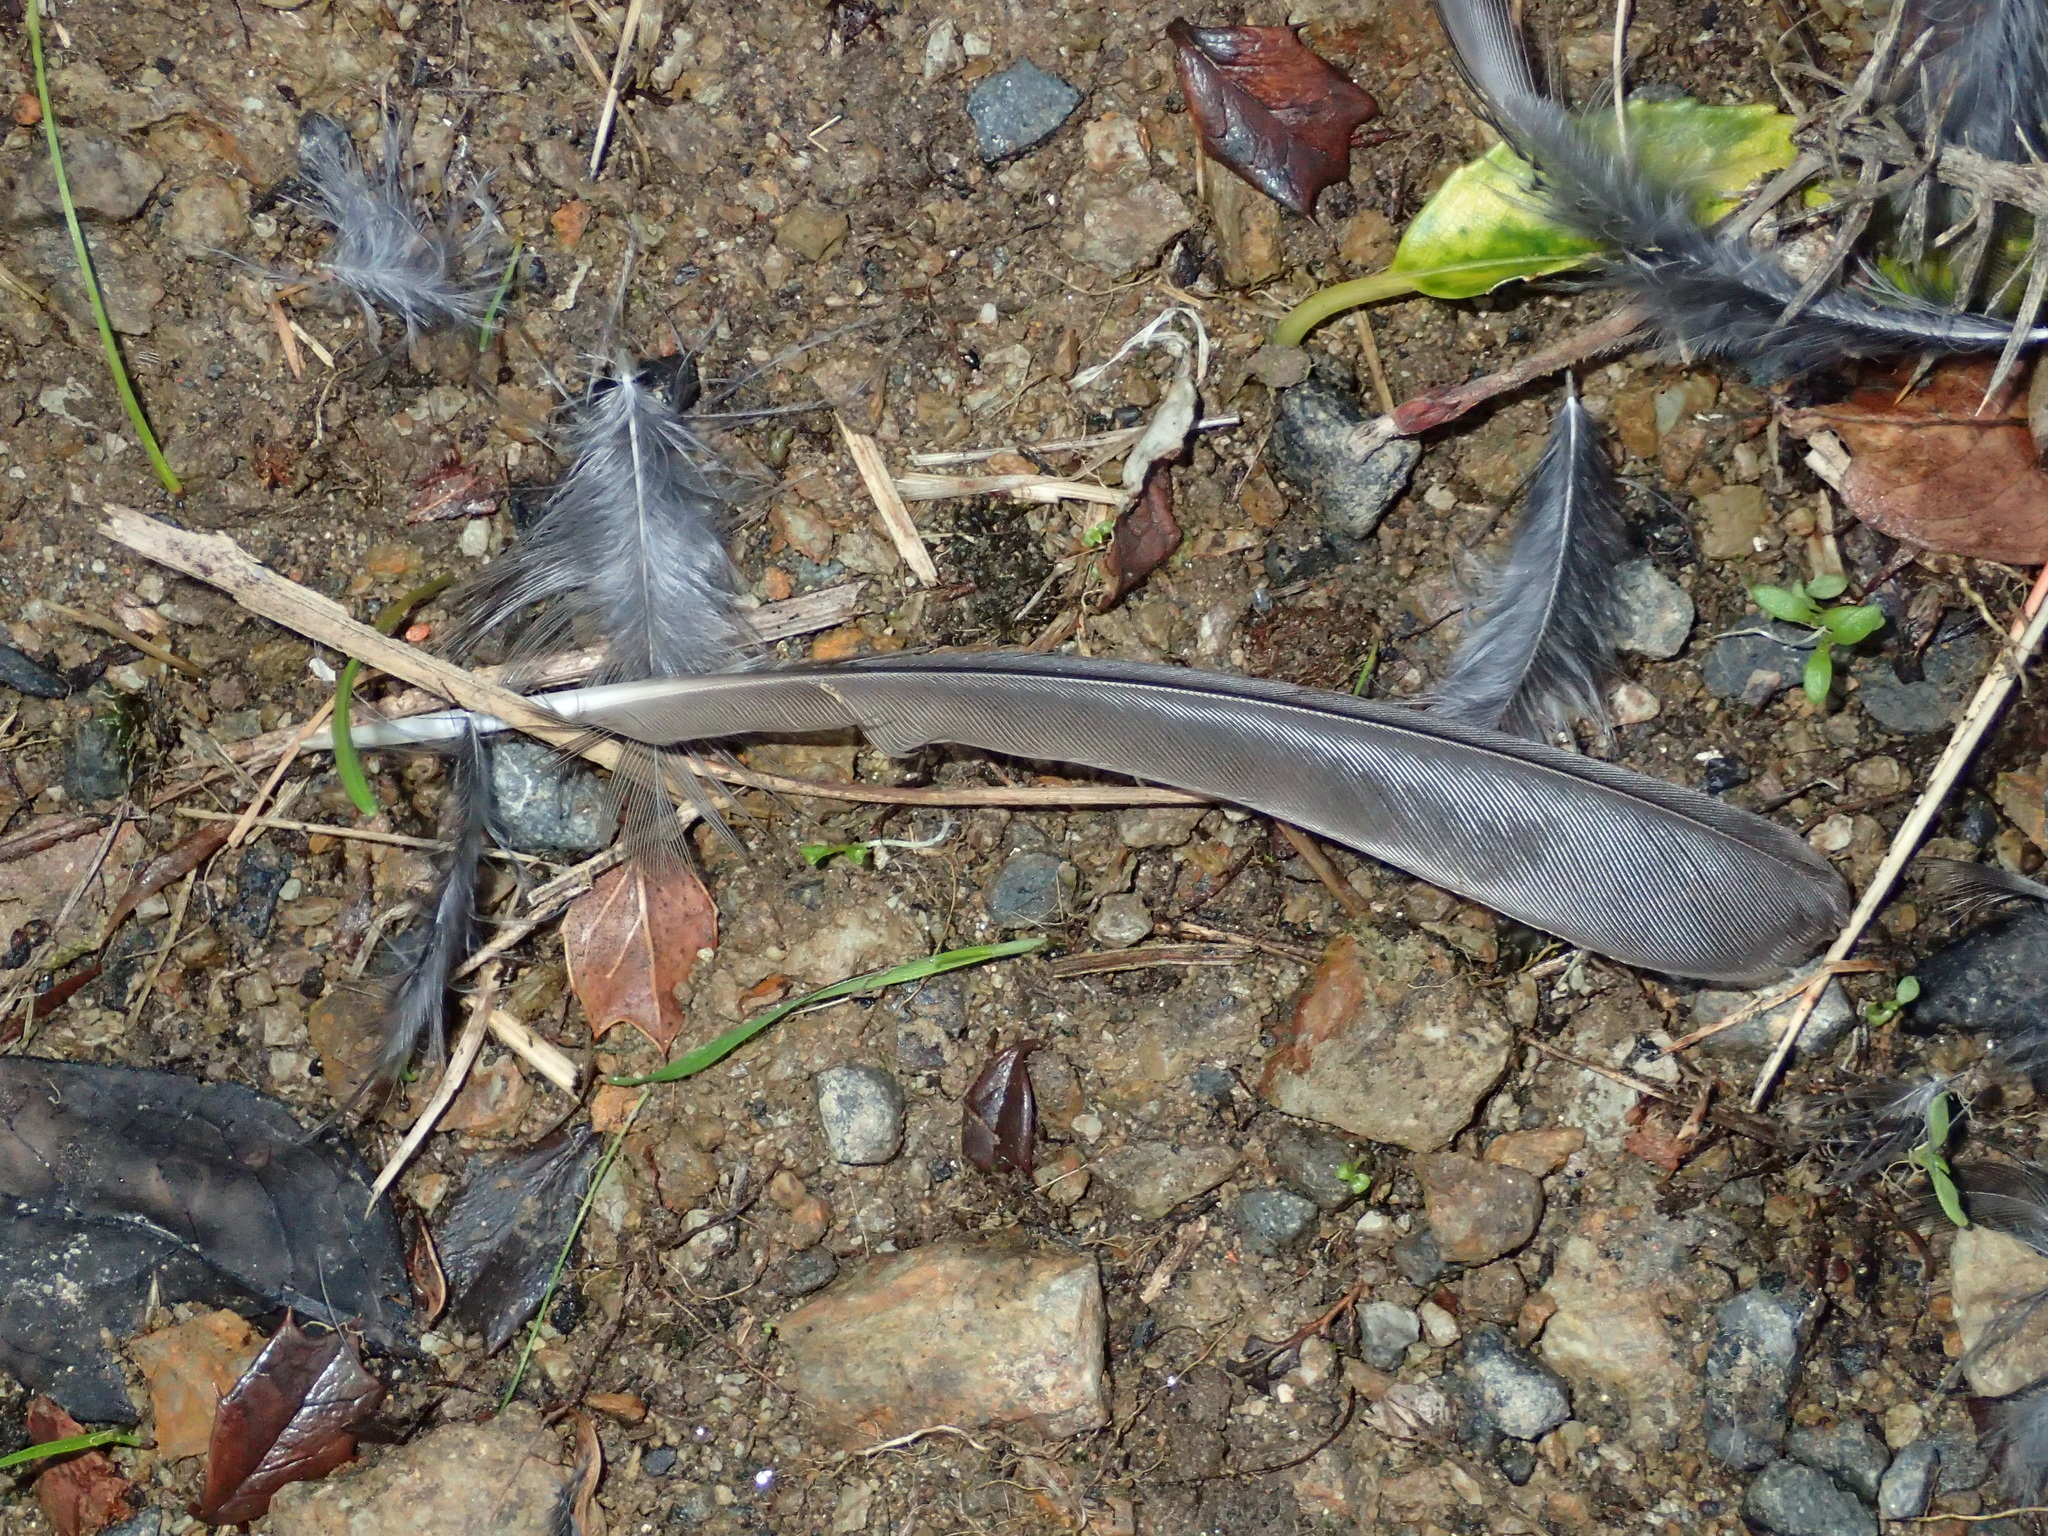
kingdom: Animalia
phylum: Chordata
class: Aves
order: Passeriformes
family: Turdidae
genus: Turdus
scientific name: Turdus merula
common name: Common blackbird
